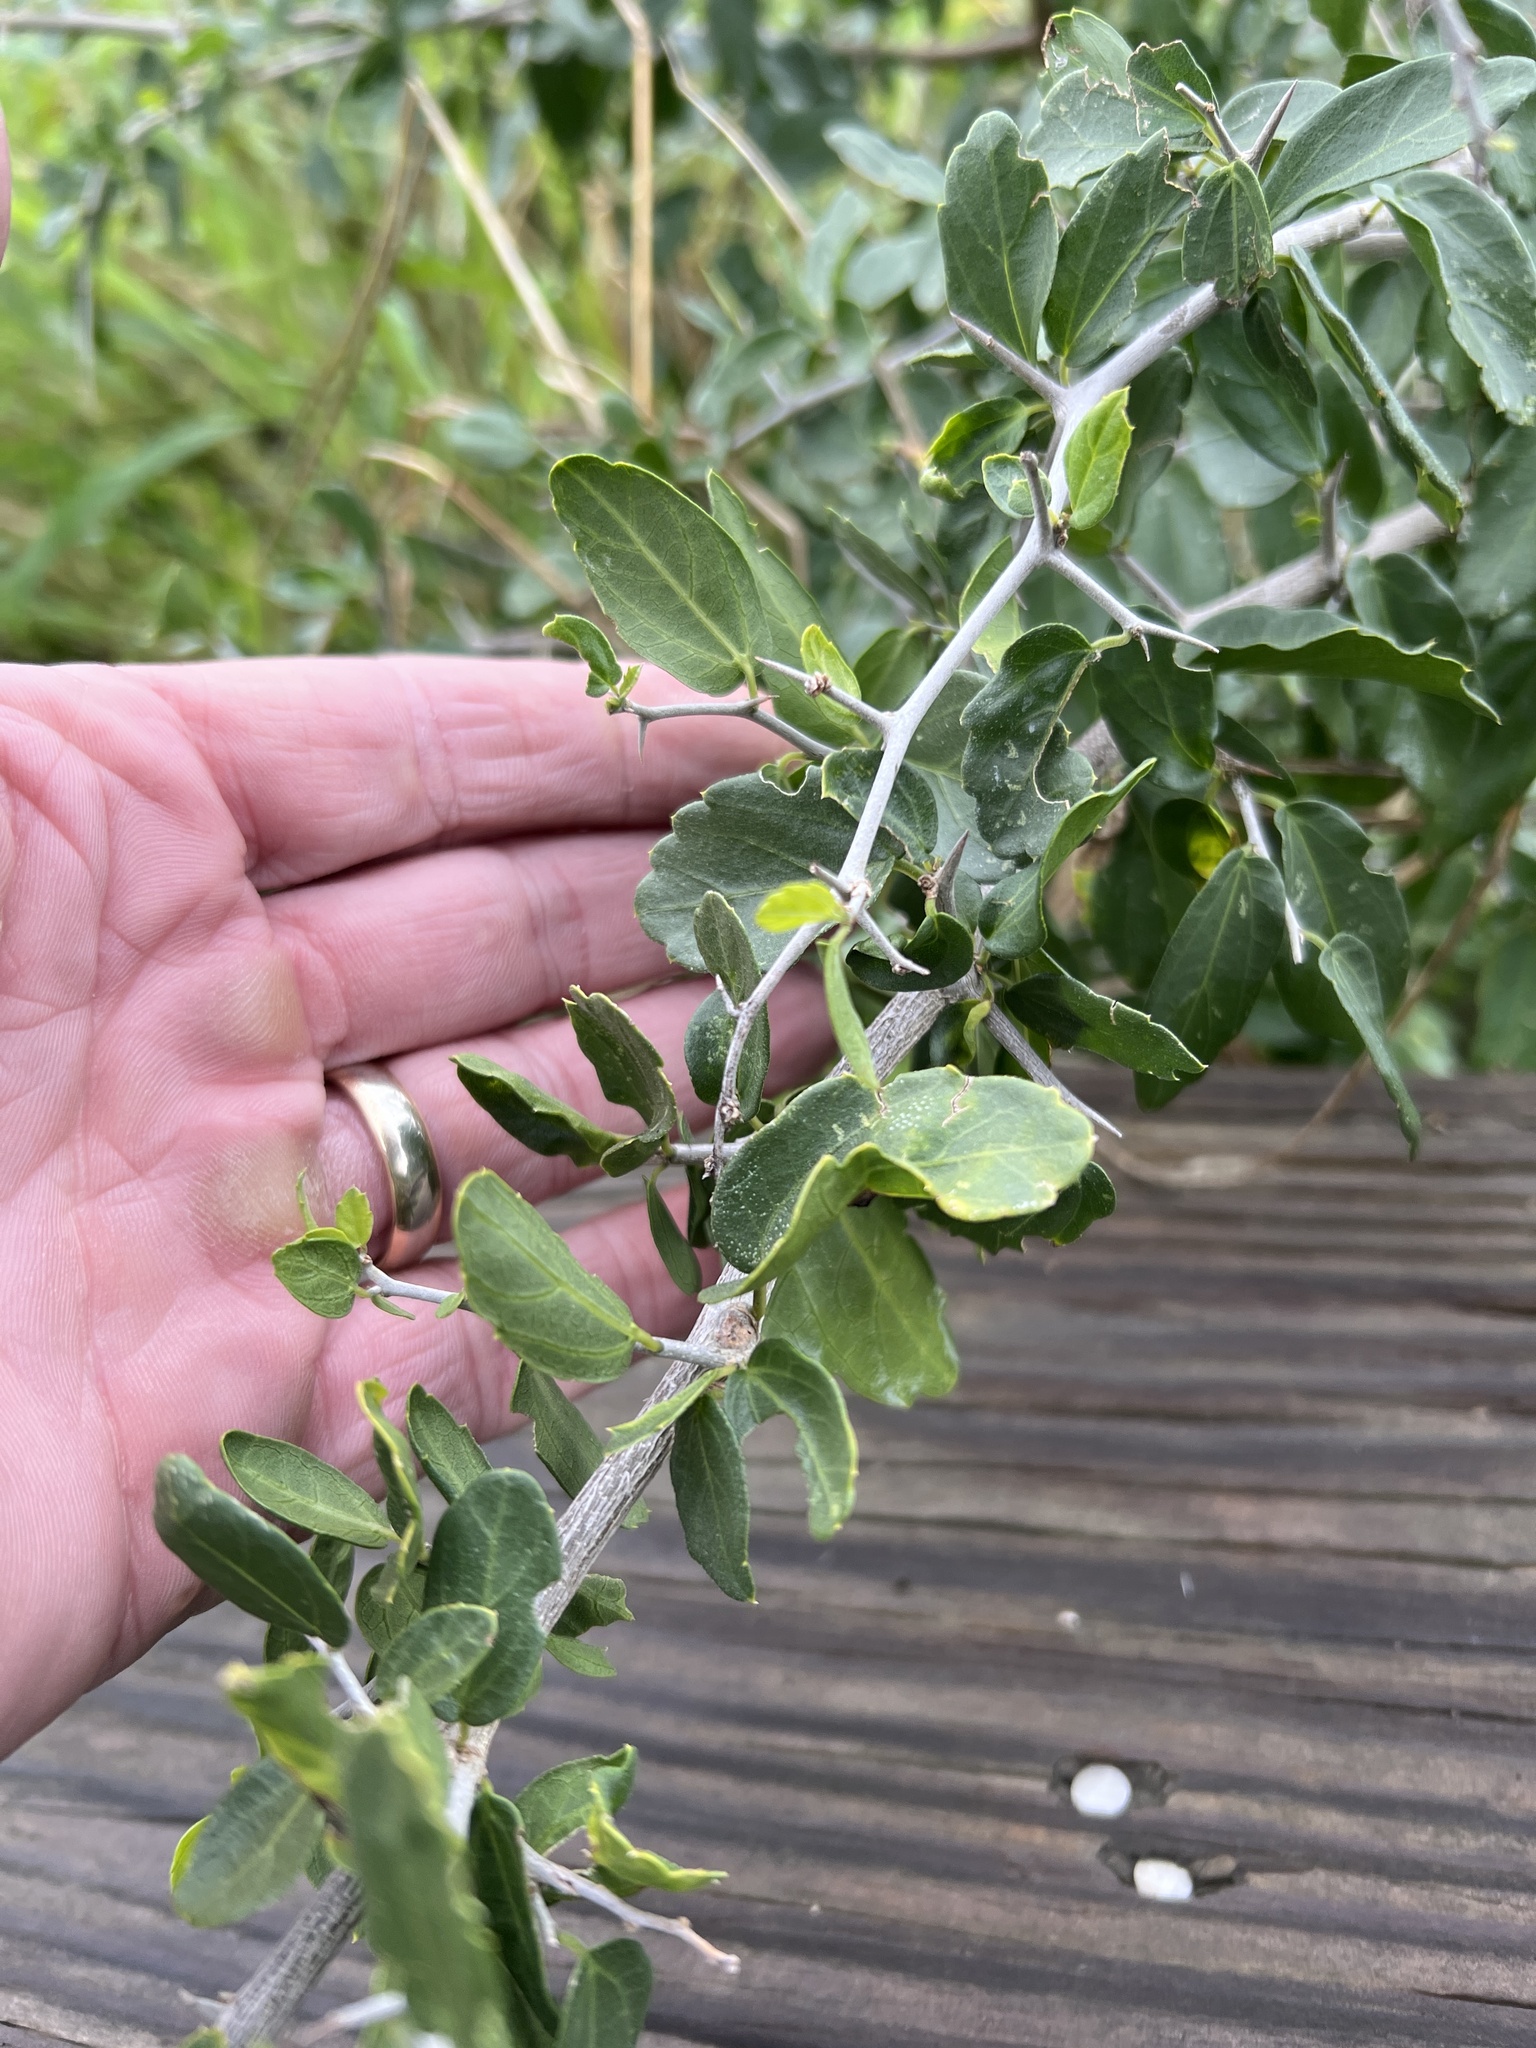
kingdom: Plantae
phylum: Tracheophyta
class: Magnoliopsida
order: Rosales
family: Cannabaceae
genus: Celtis
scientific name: Celtis pallida
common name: Desert hackberry
